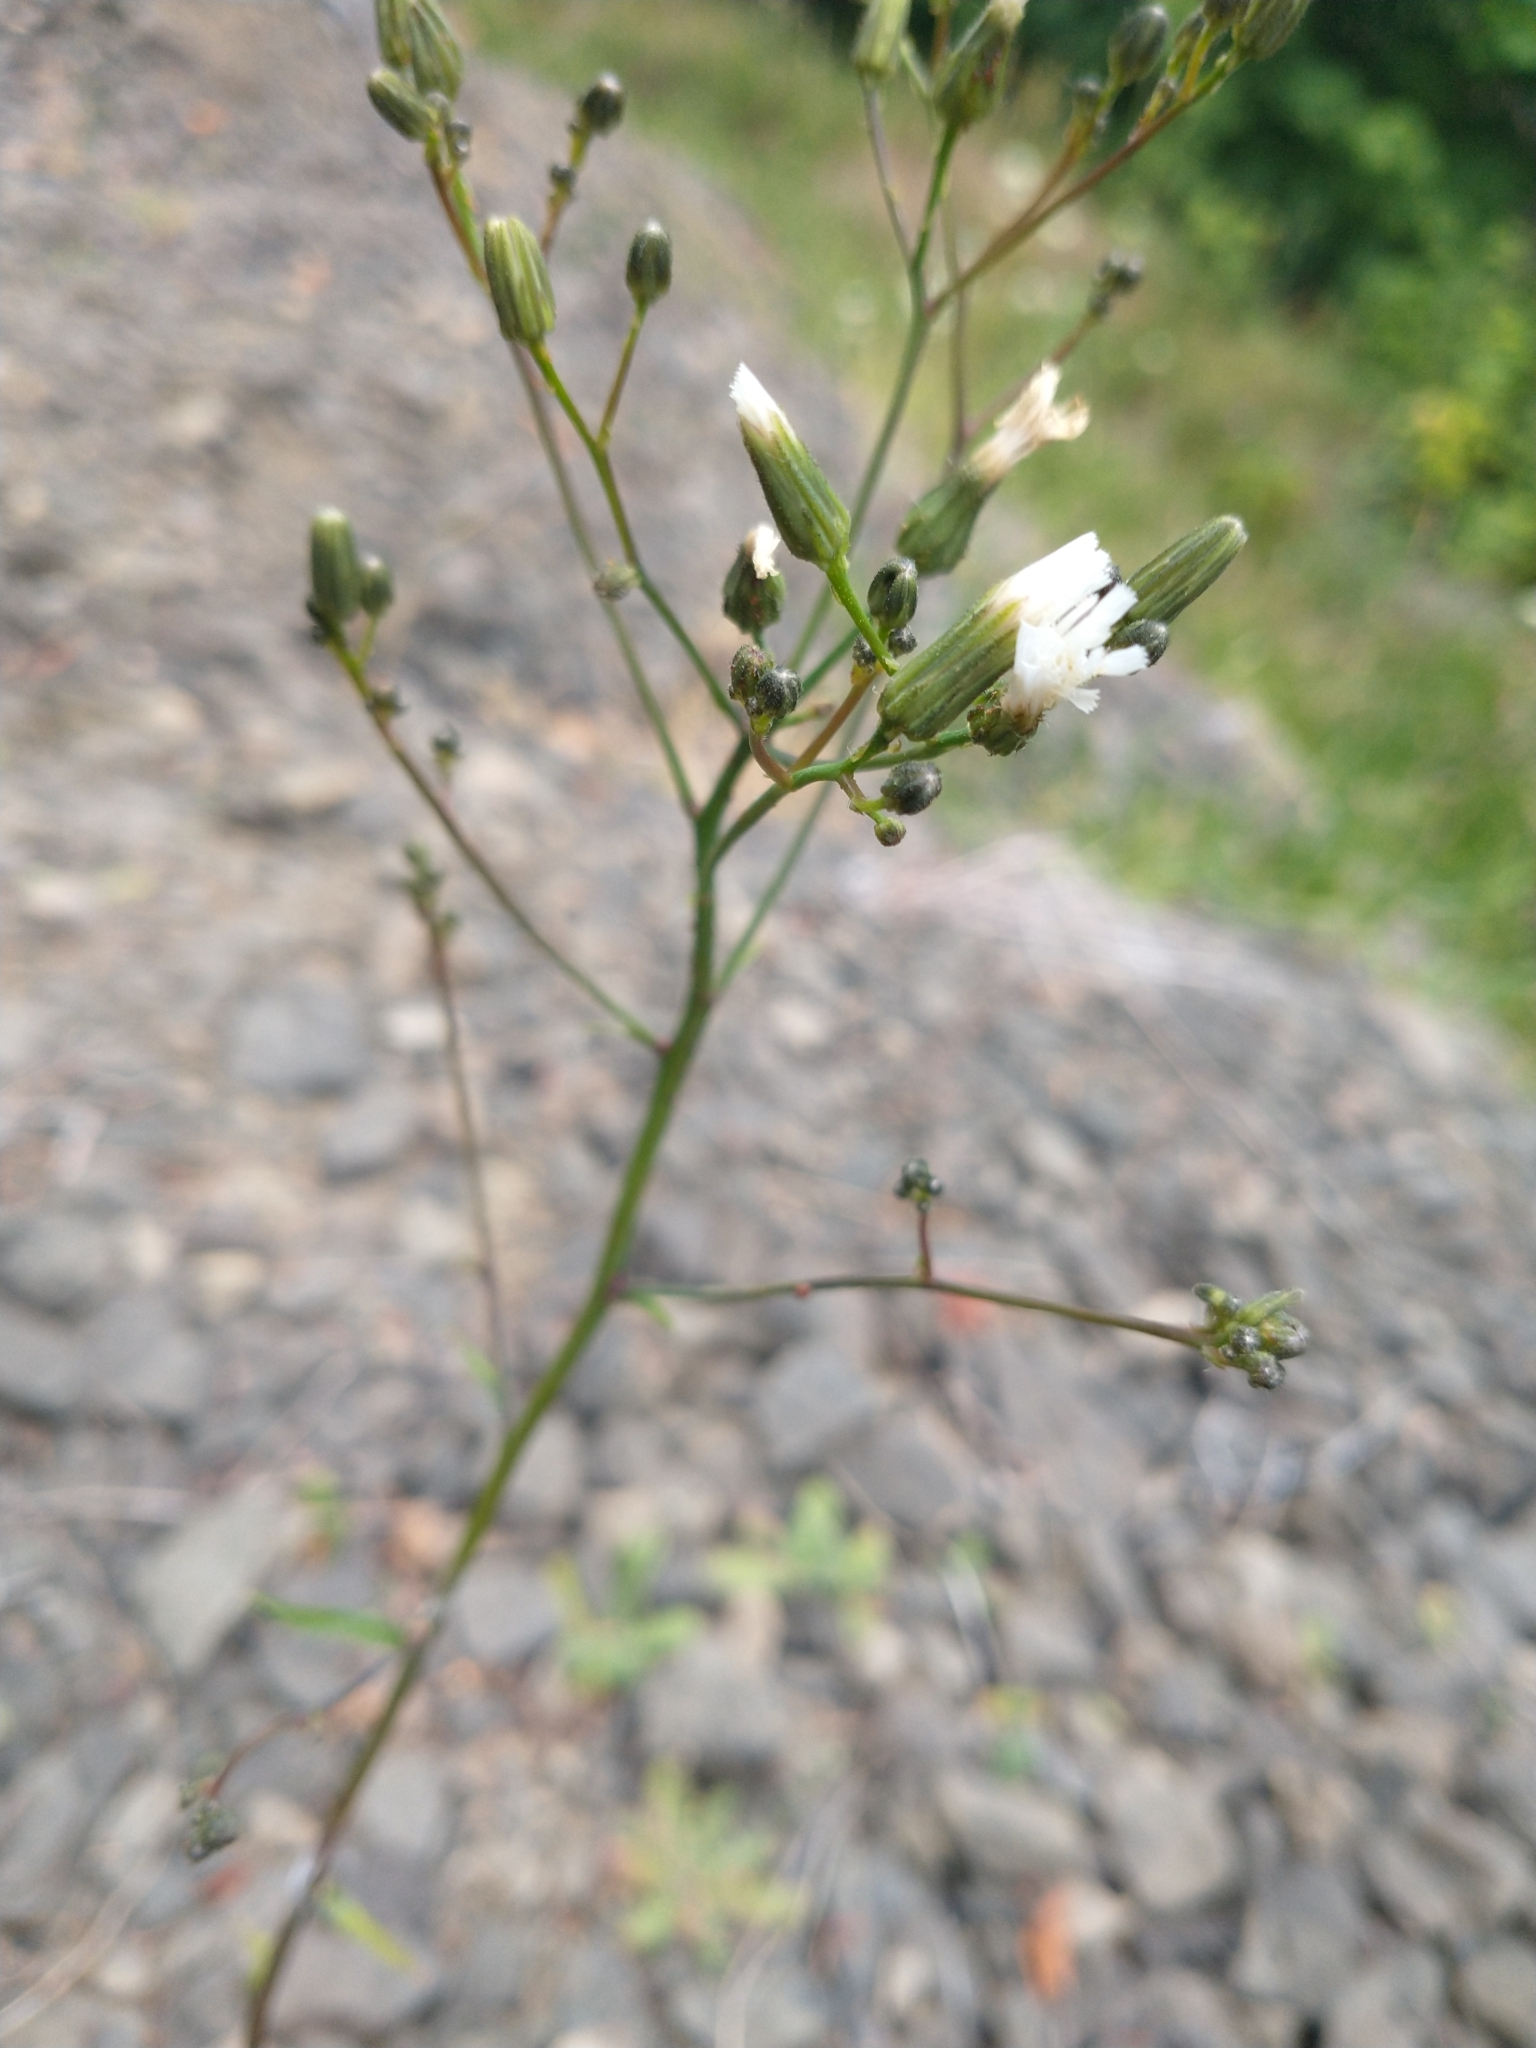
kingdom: Plantae
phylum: Tracheophyta
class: Magnoliopsida
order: Asterales
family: Asteraceae
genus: Hieracium
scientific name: Hieracium albiflorum
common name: White hawkweed
